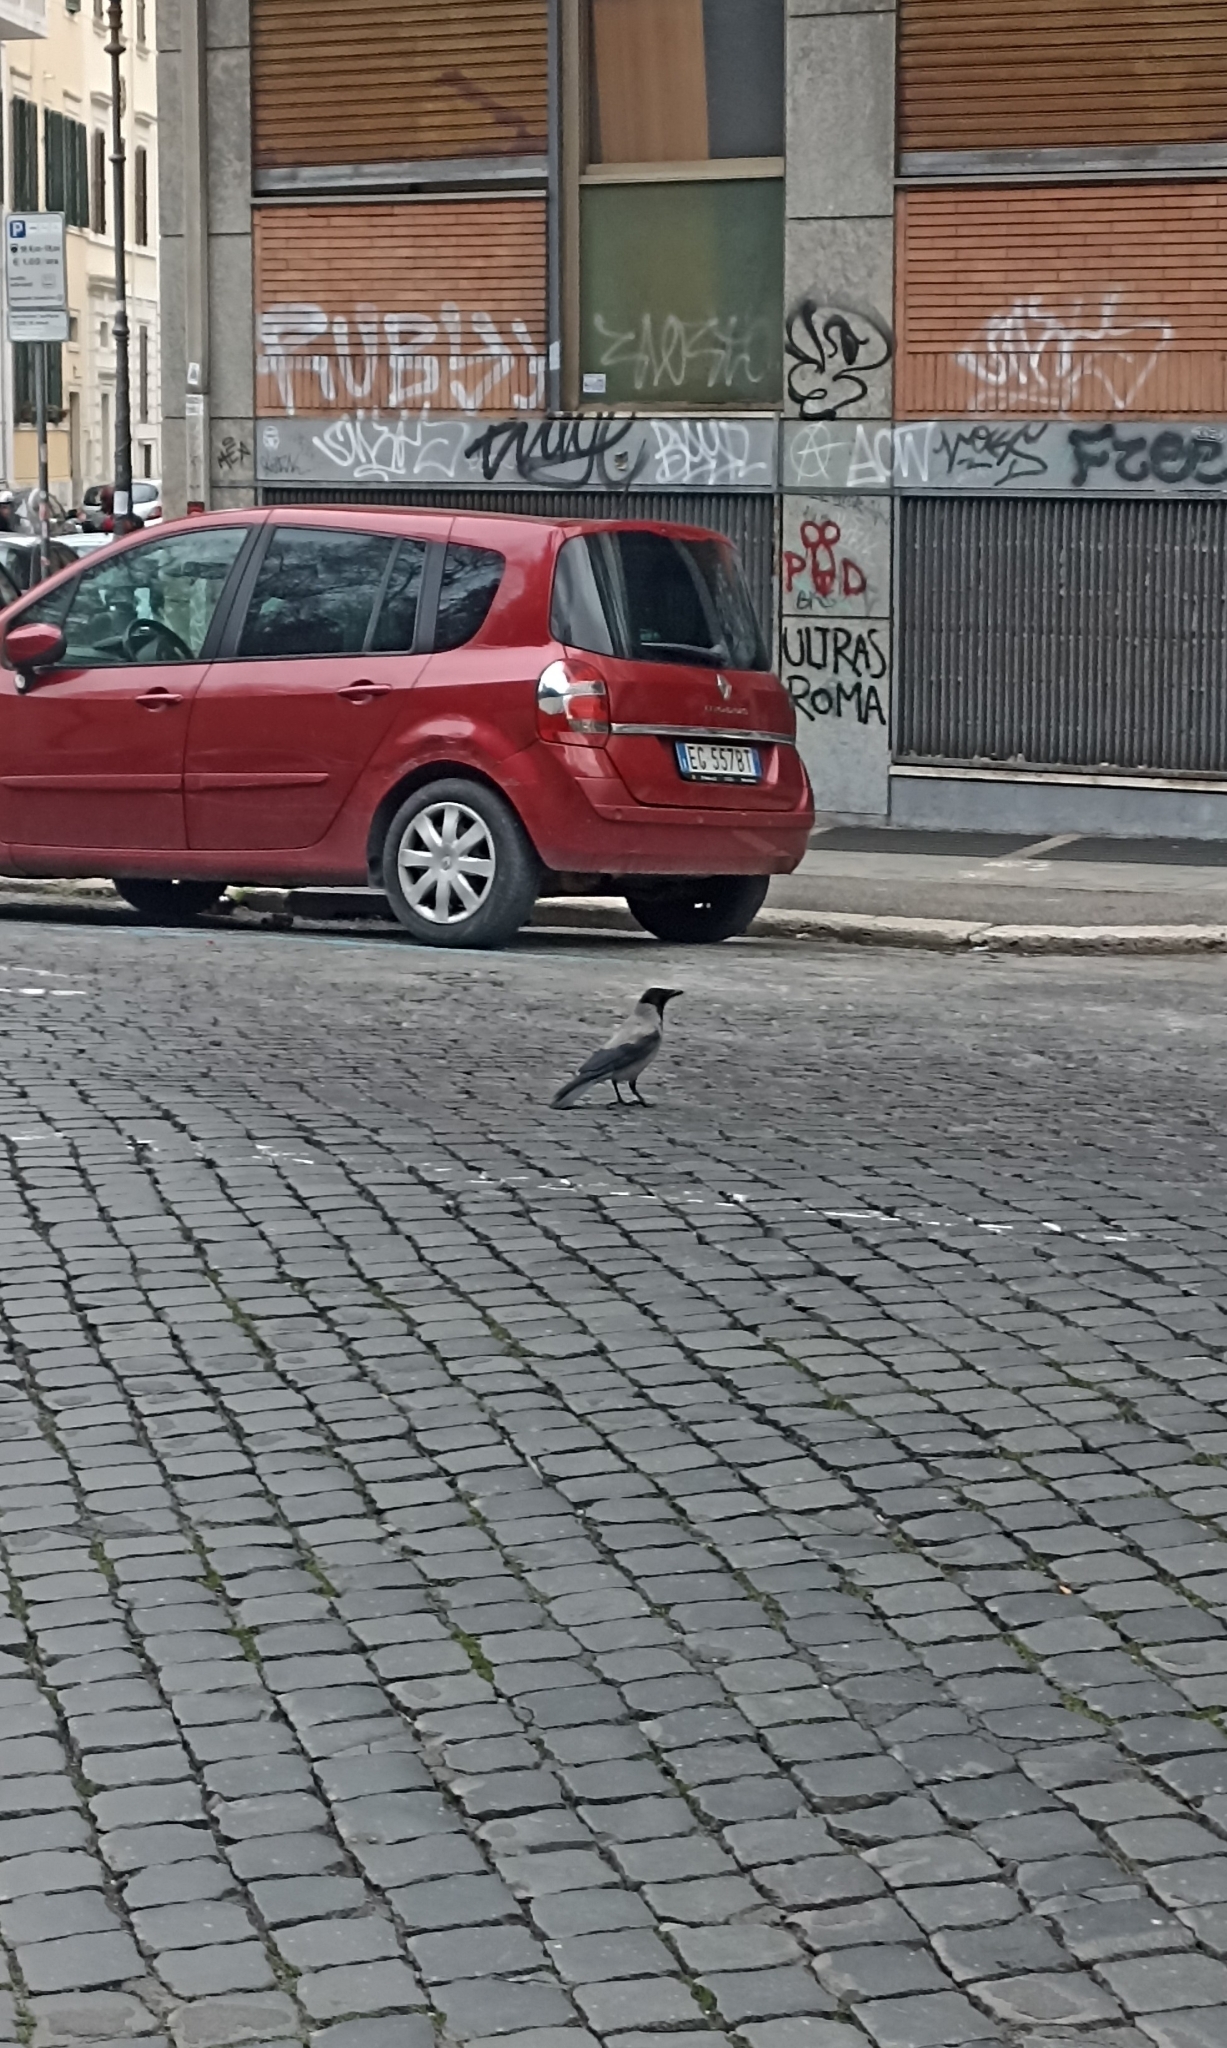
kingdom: Animalia
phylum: Chordata
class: Aves
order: Passeriformes
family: Corvidae
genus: Corvus
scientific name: Corvus cornix
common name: Hooded crow
